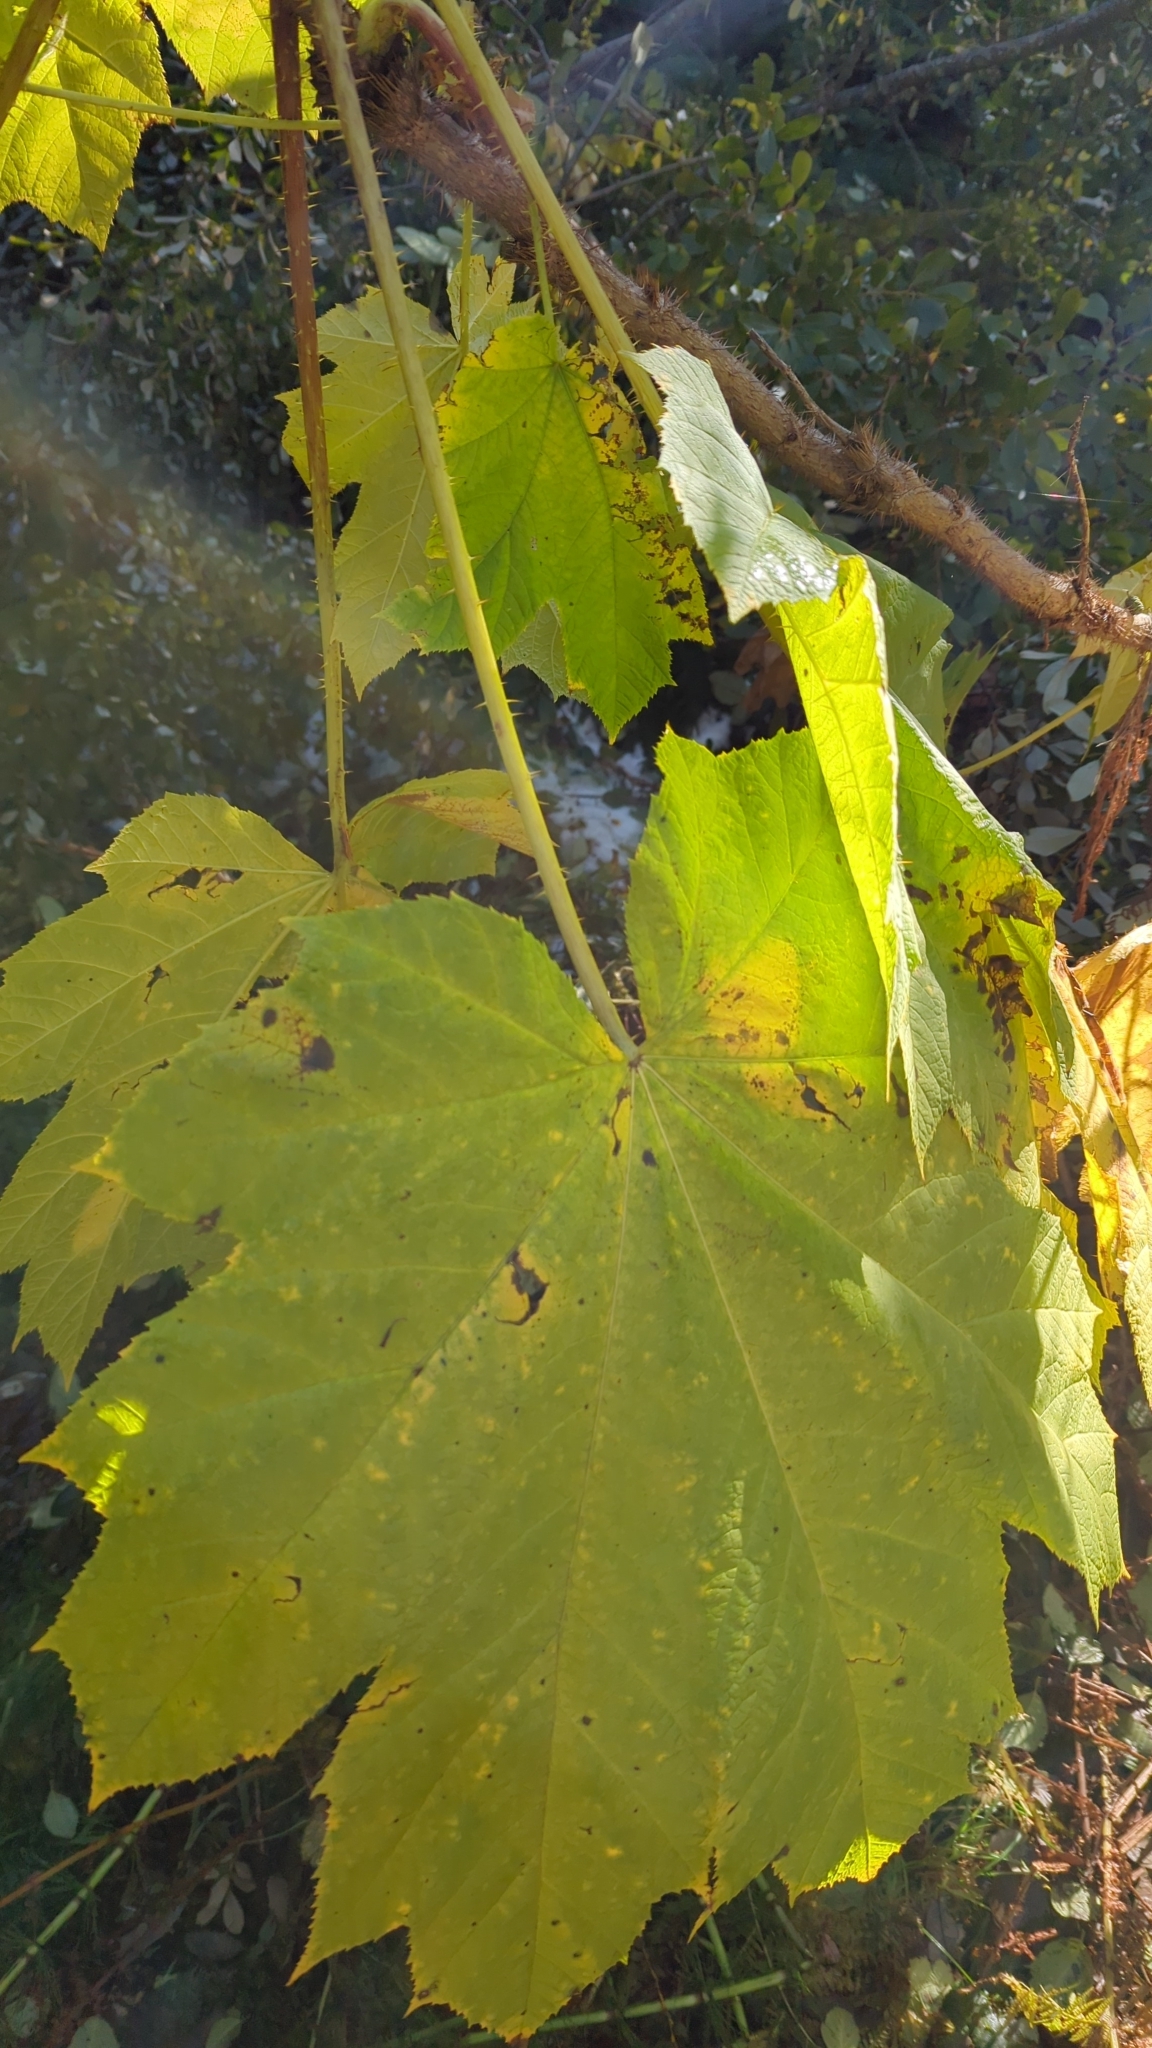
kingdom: Plantae
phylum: Tracheophyta
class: Magnoliopsida
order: Apiales
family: Araliaceae
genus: Oplopanax
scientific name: Oplopanax horridus
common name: Devil's walking-stick
